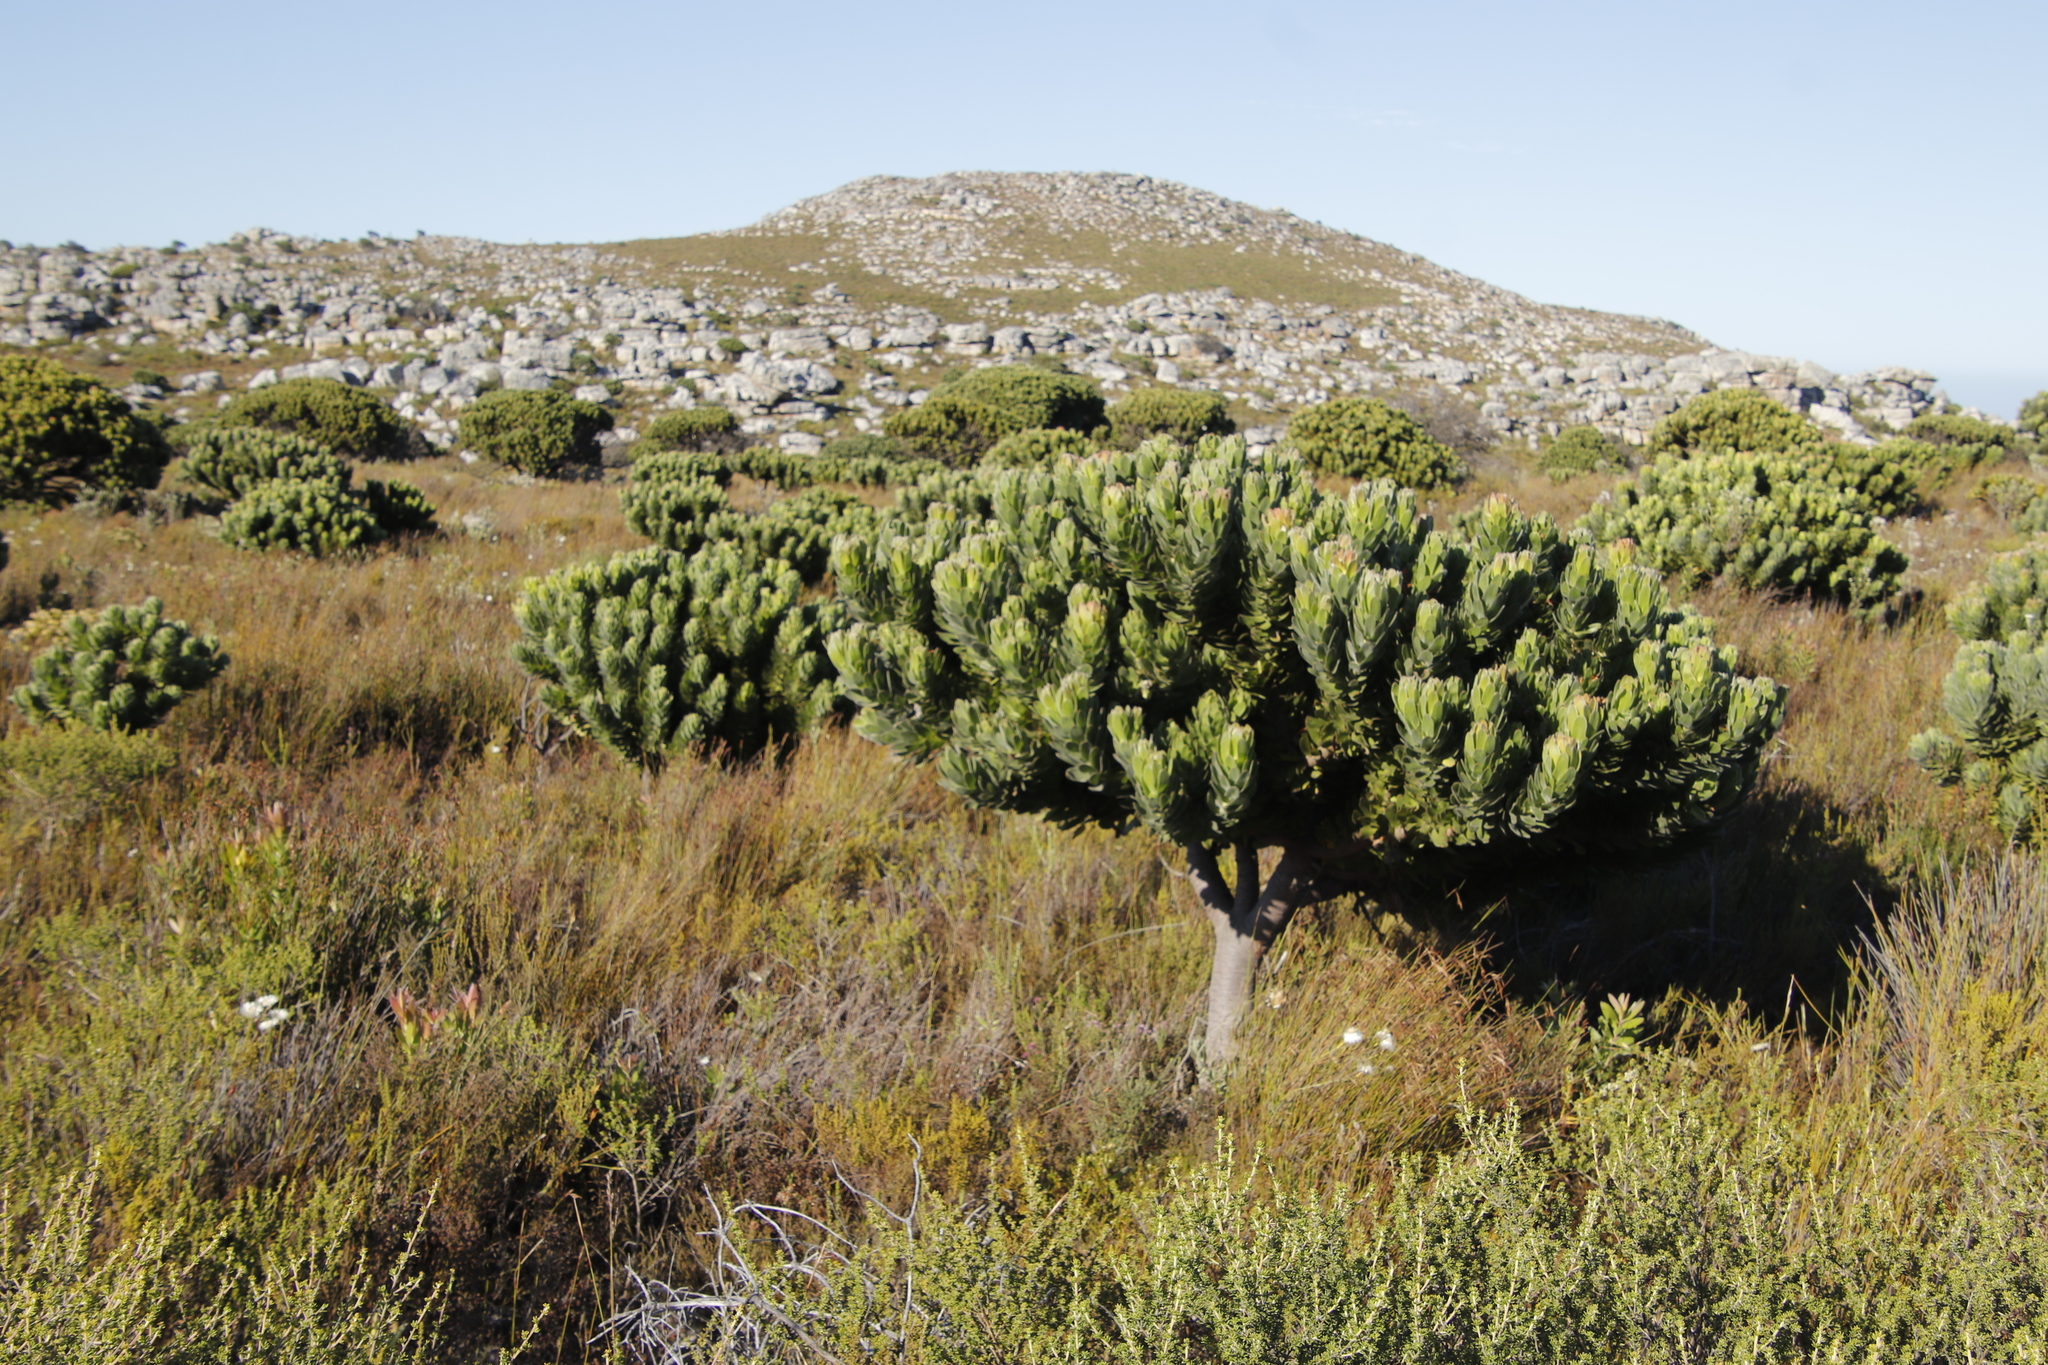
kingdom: Plantae
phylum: Tracheophyta
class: Magnoliopsida
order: Proteales
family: Proteaceae
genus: Mimetes
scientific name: Mimetes fimbriifolius
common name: Fringed bottlebrush
